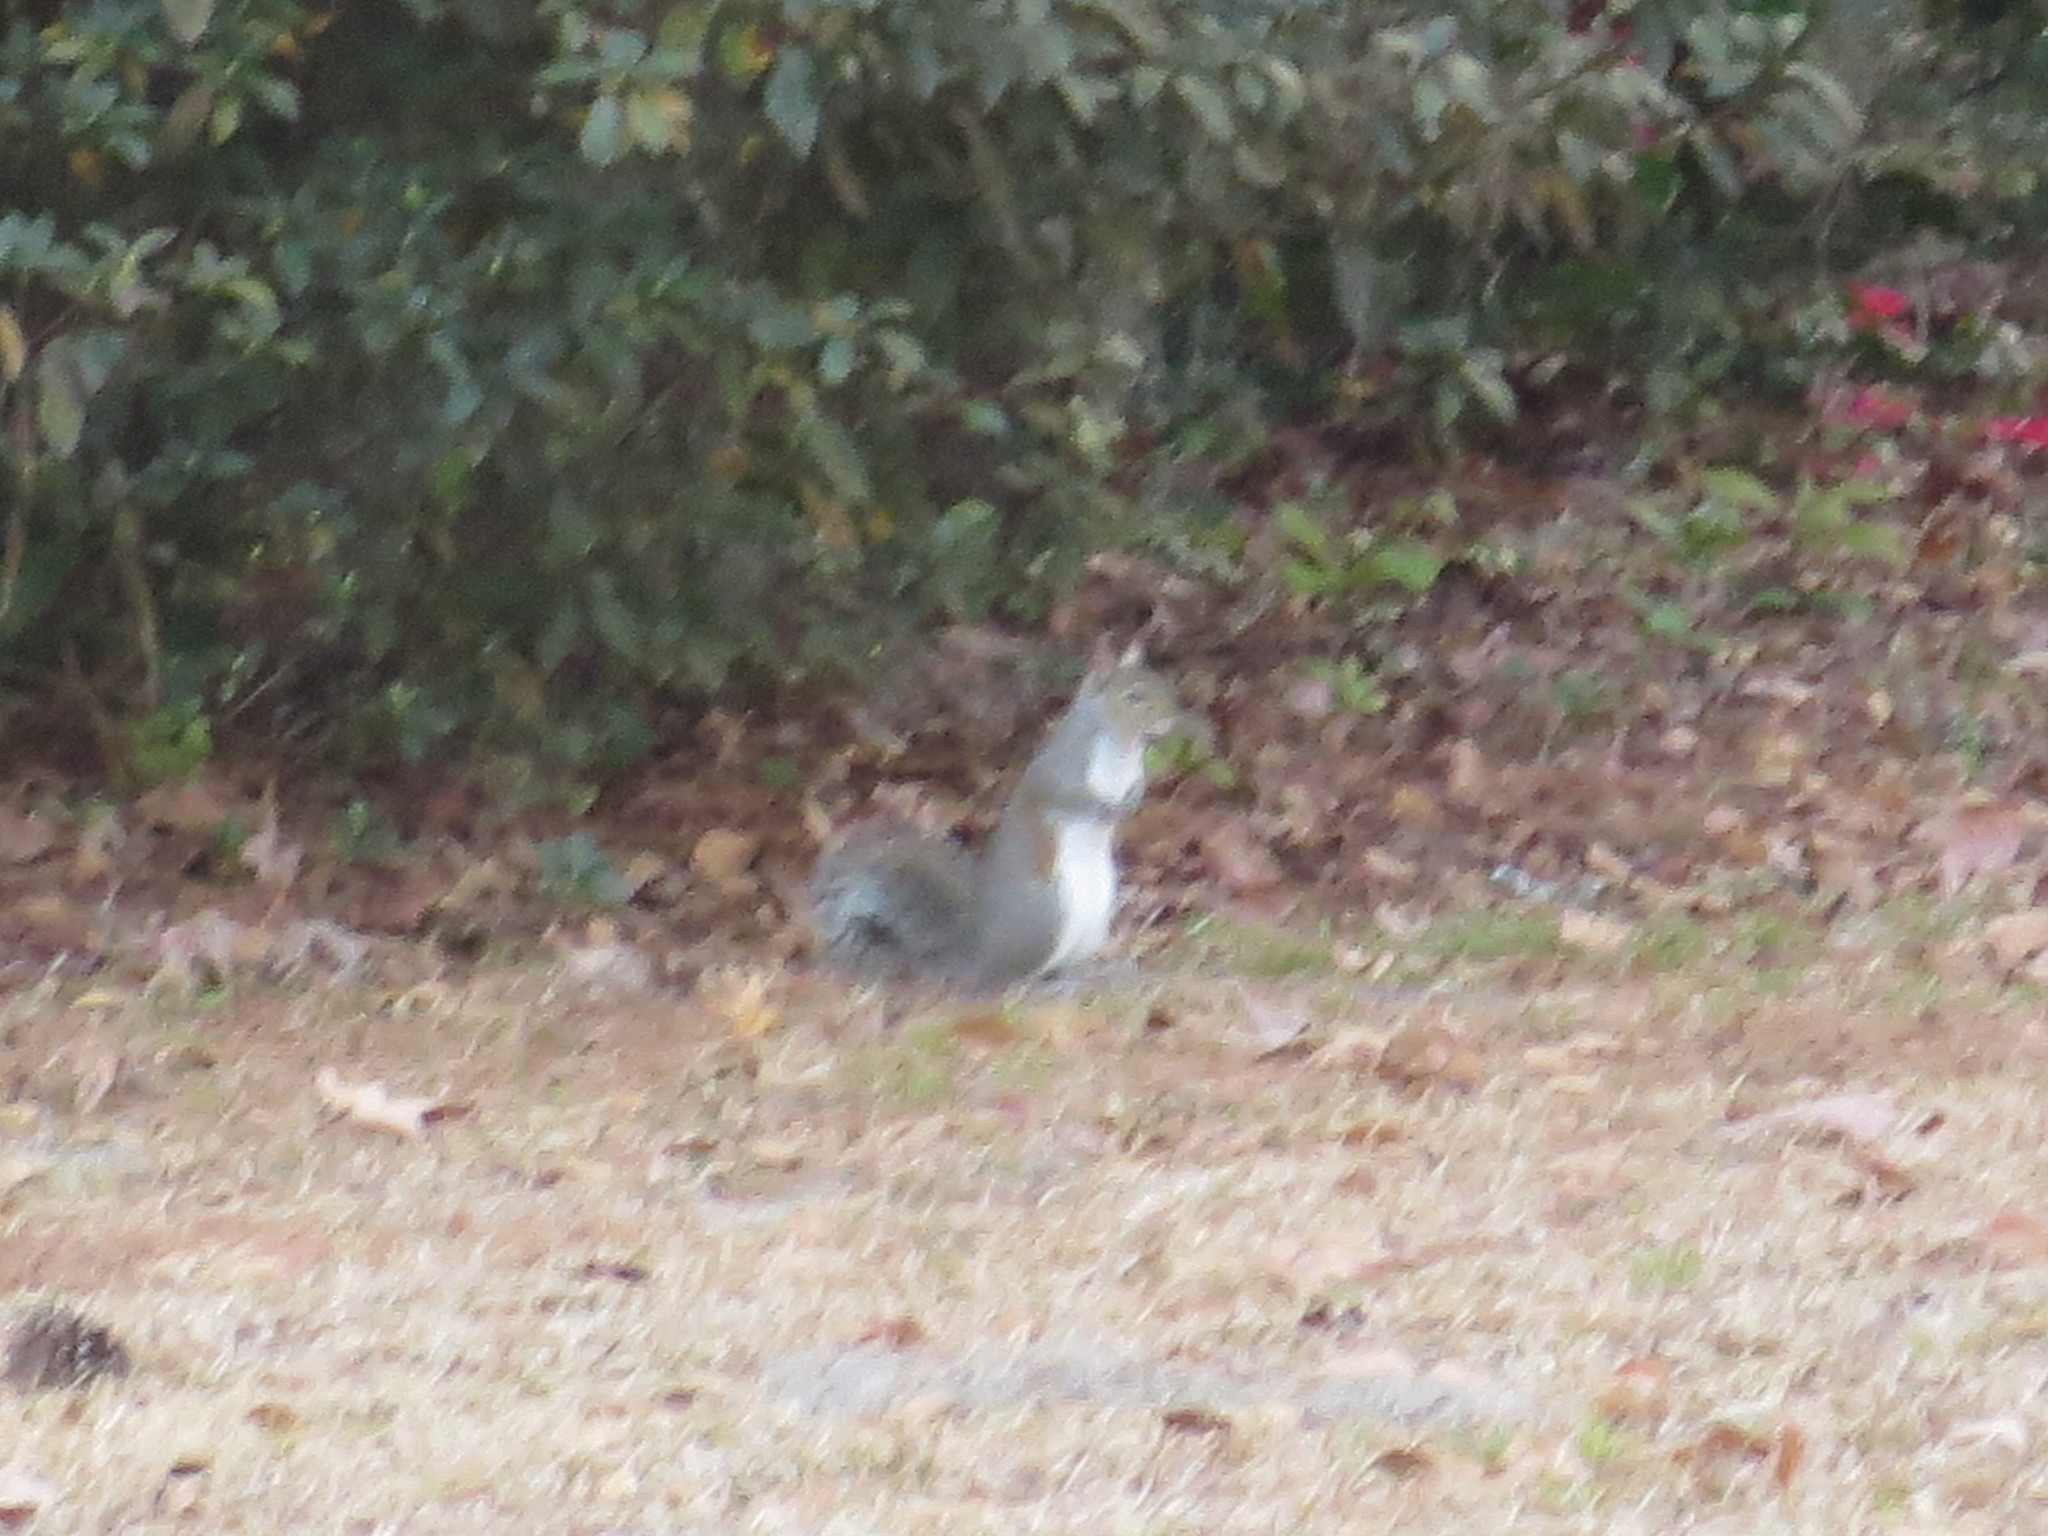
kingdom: Animalia
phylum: Chordata
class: Mammalia
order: Rodentia
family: Sciuridae
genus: Sciurus
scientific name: Sciurus carolinensis
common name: Eastern gray squirrel
